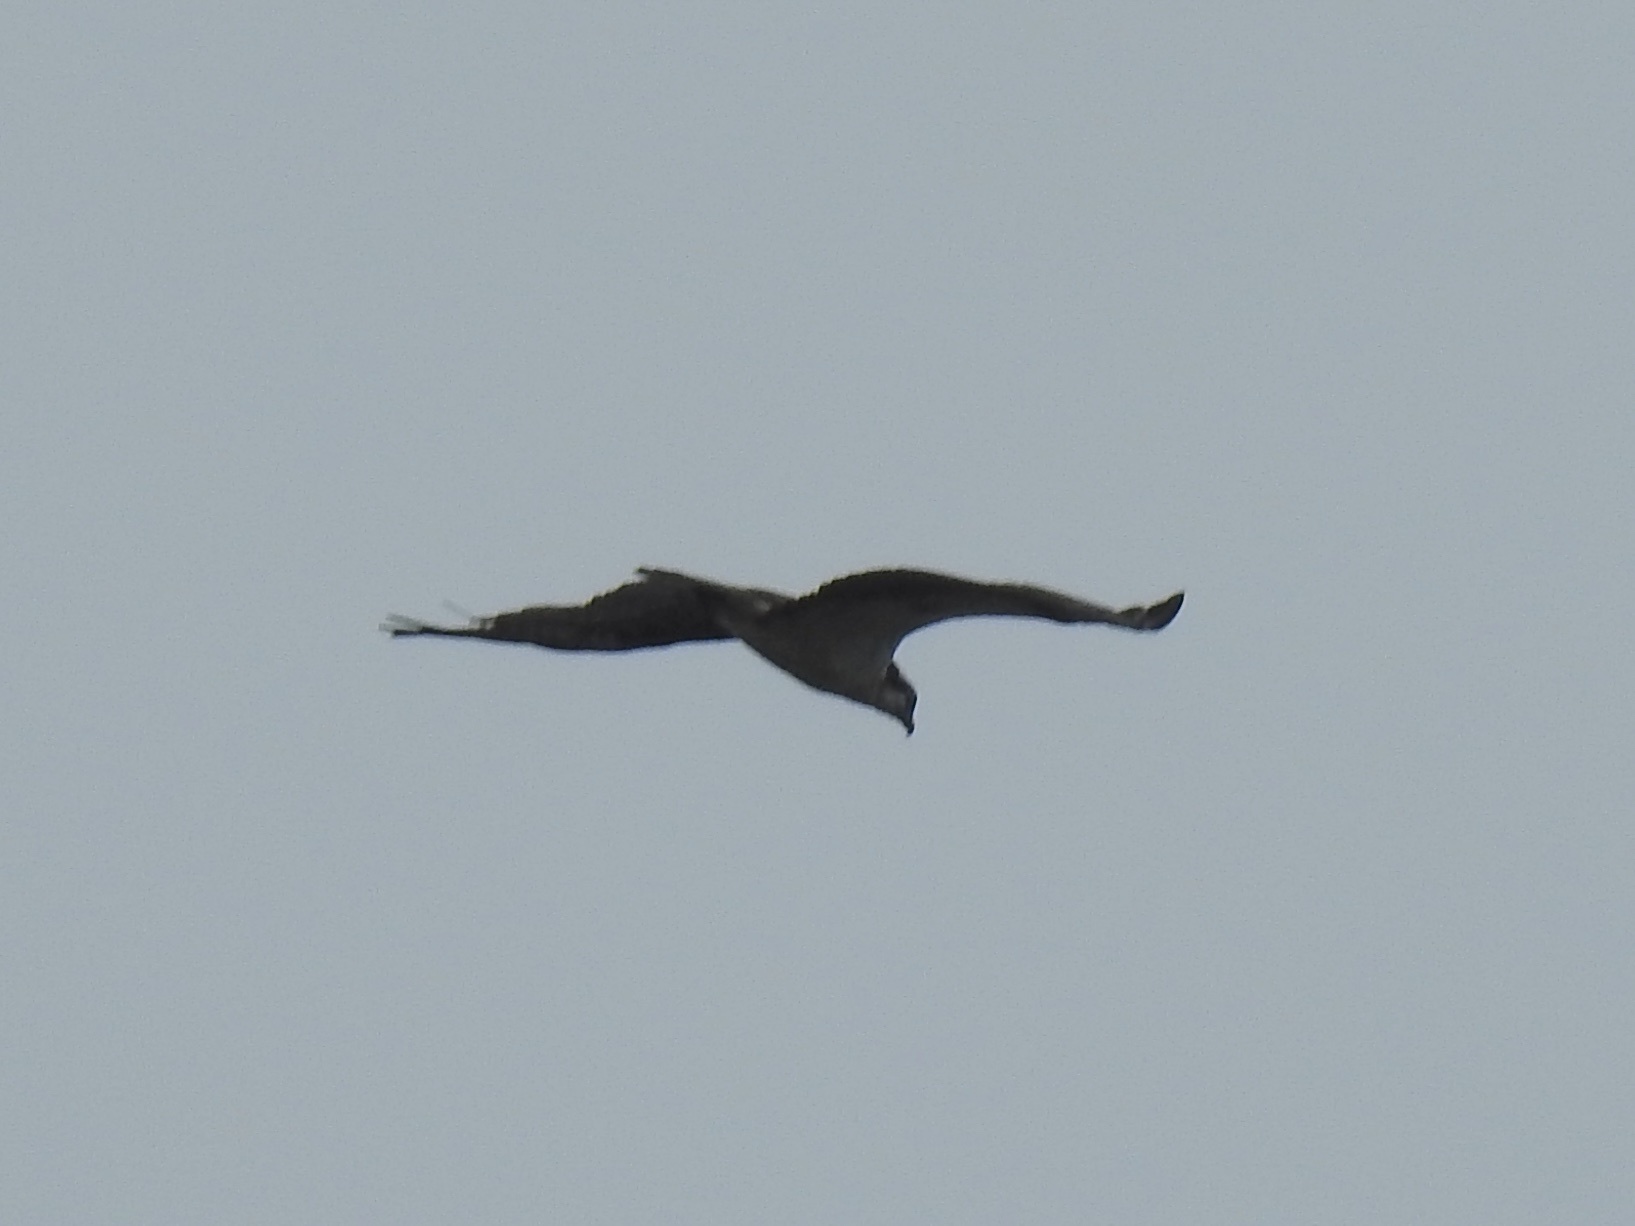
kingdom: Animalia
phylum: Chordata
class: Aves
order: Accipitriformes
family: Pandionidae
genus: Pandion
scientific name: Pandion haliaetus
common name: Osprey
